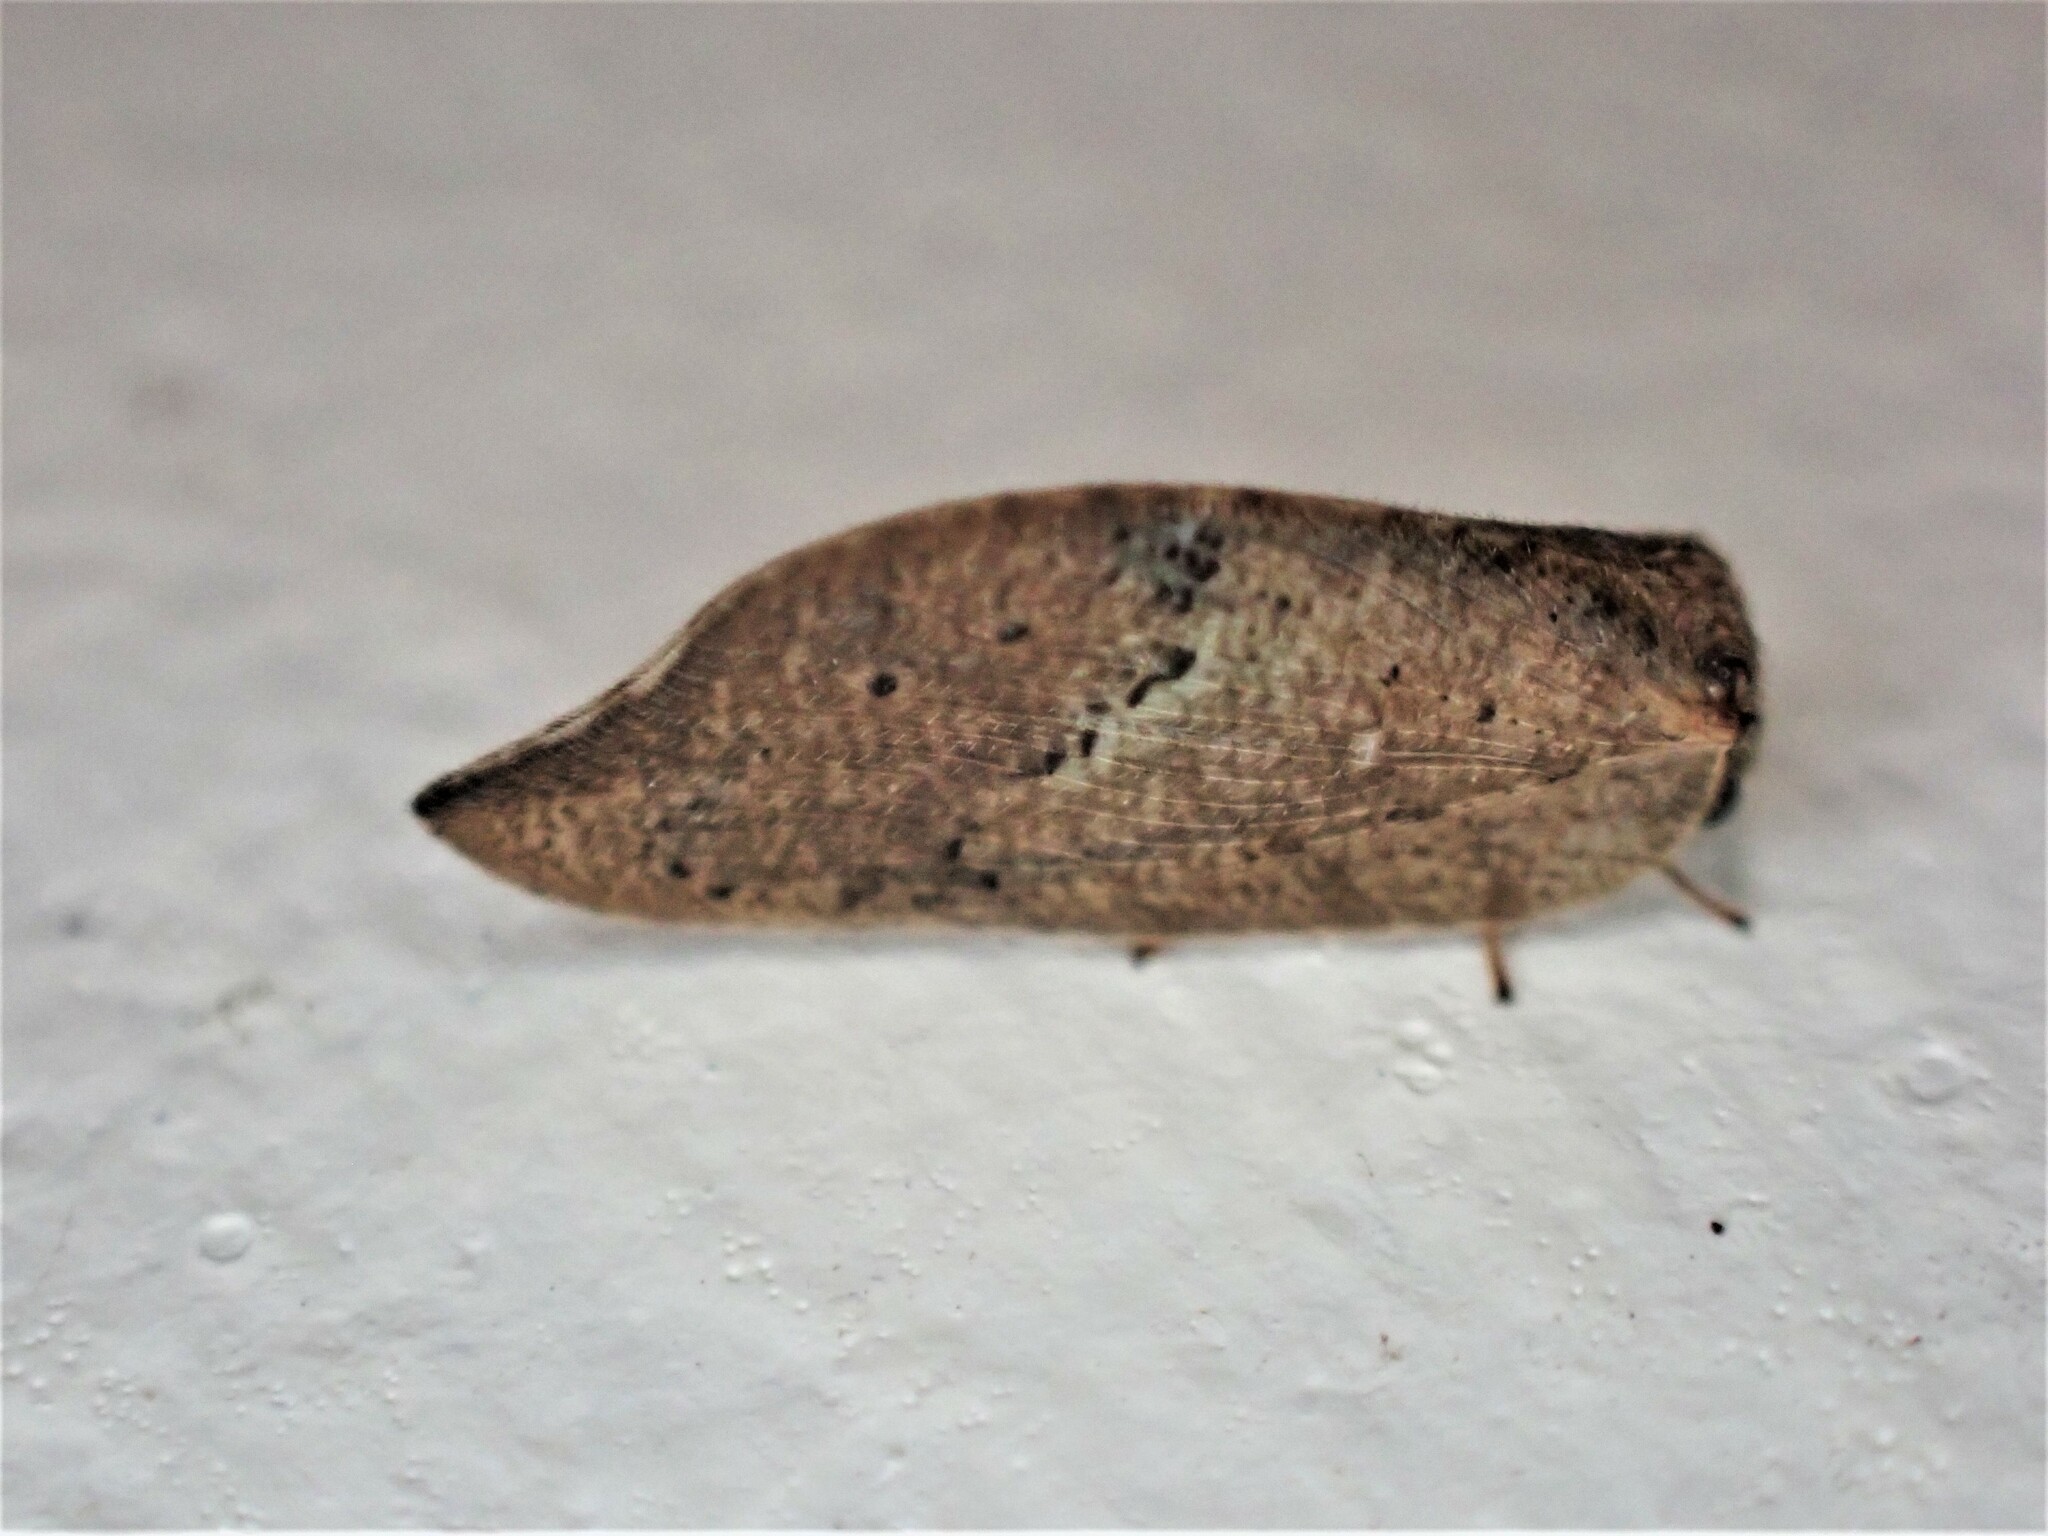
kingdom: Animalia
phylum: Arthropoda
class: Insecta
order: Neuroptera
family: Hemerobiidae
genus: Drepanacra
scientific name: Drepanacra binocula
